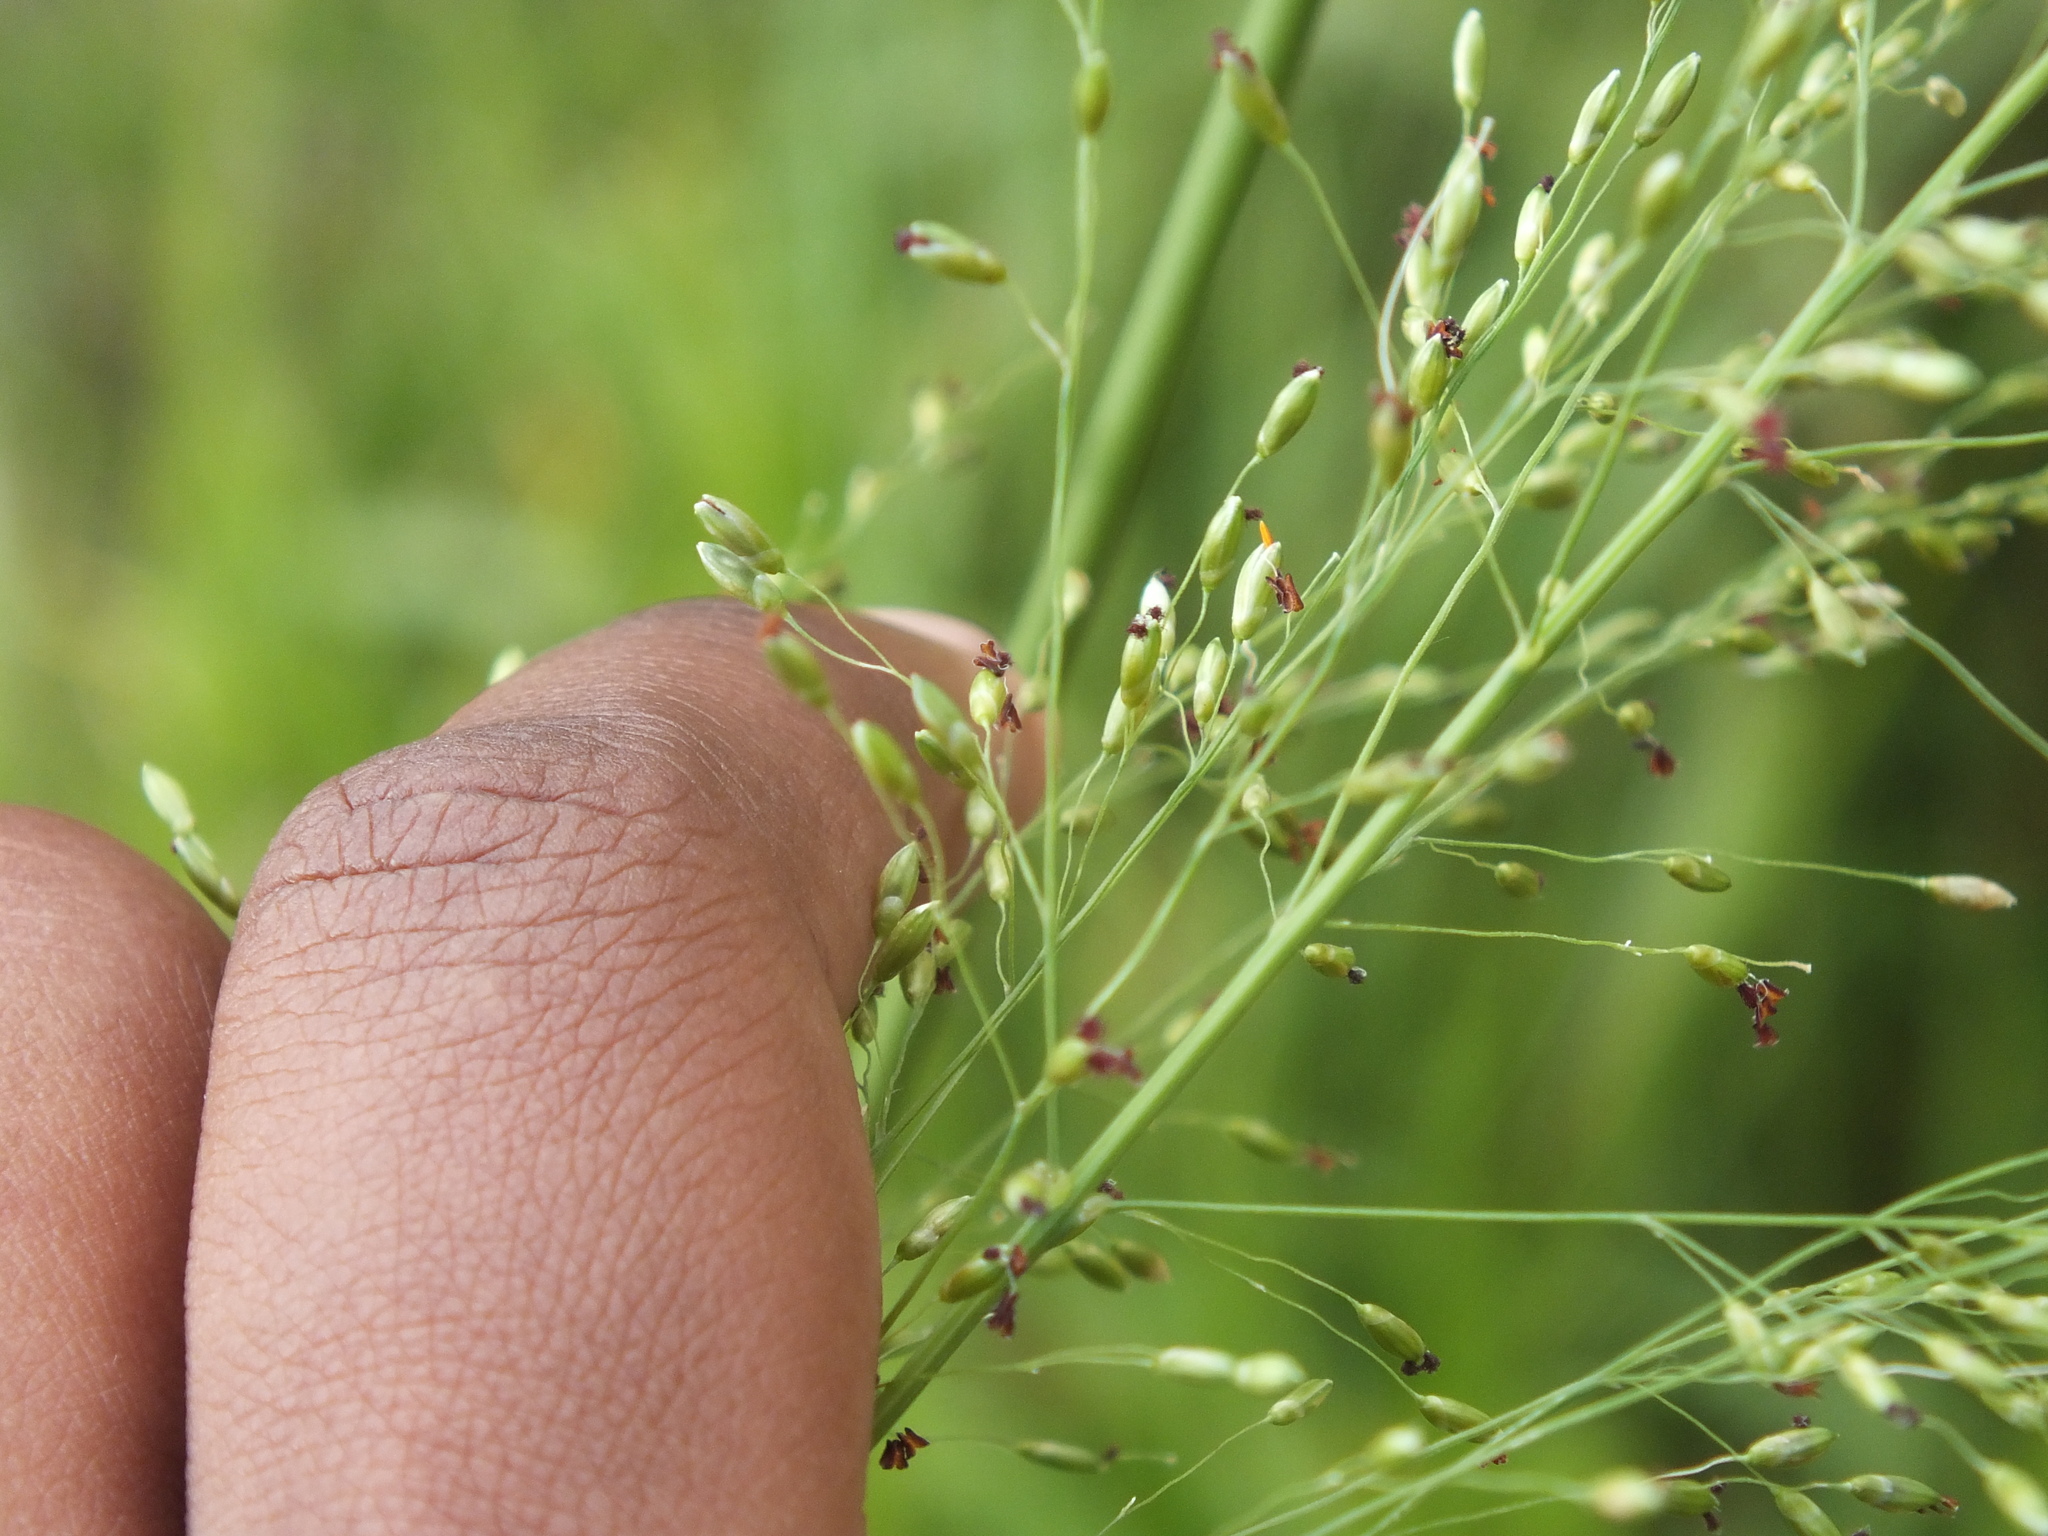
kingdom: Plantae
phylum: Tracheophyta
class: Liliopsida
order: Poales
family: Poaceae
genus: Megathyrsus
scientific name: Megathyrsus maximus
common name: Guineagrass
